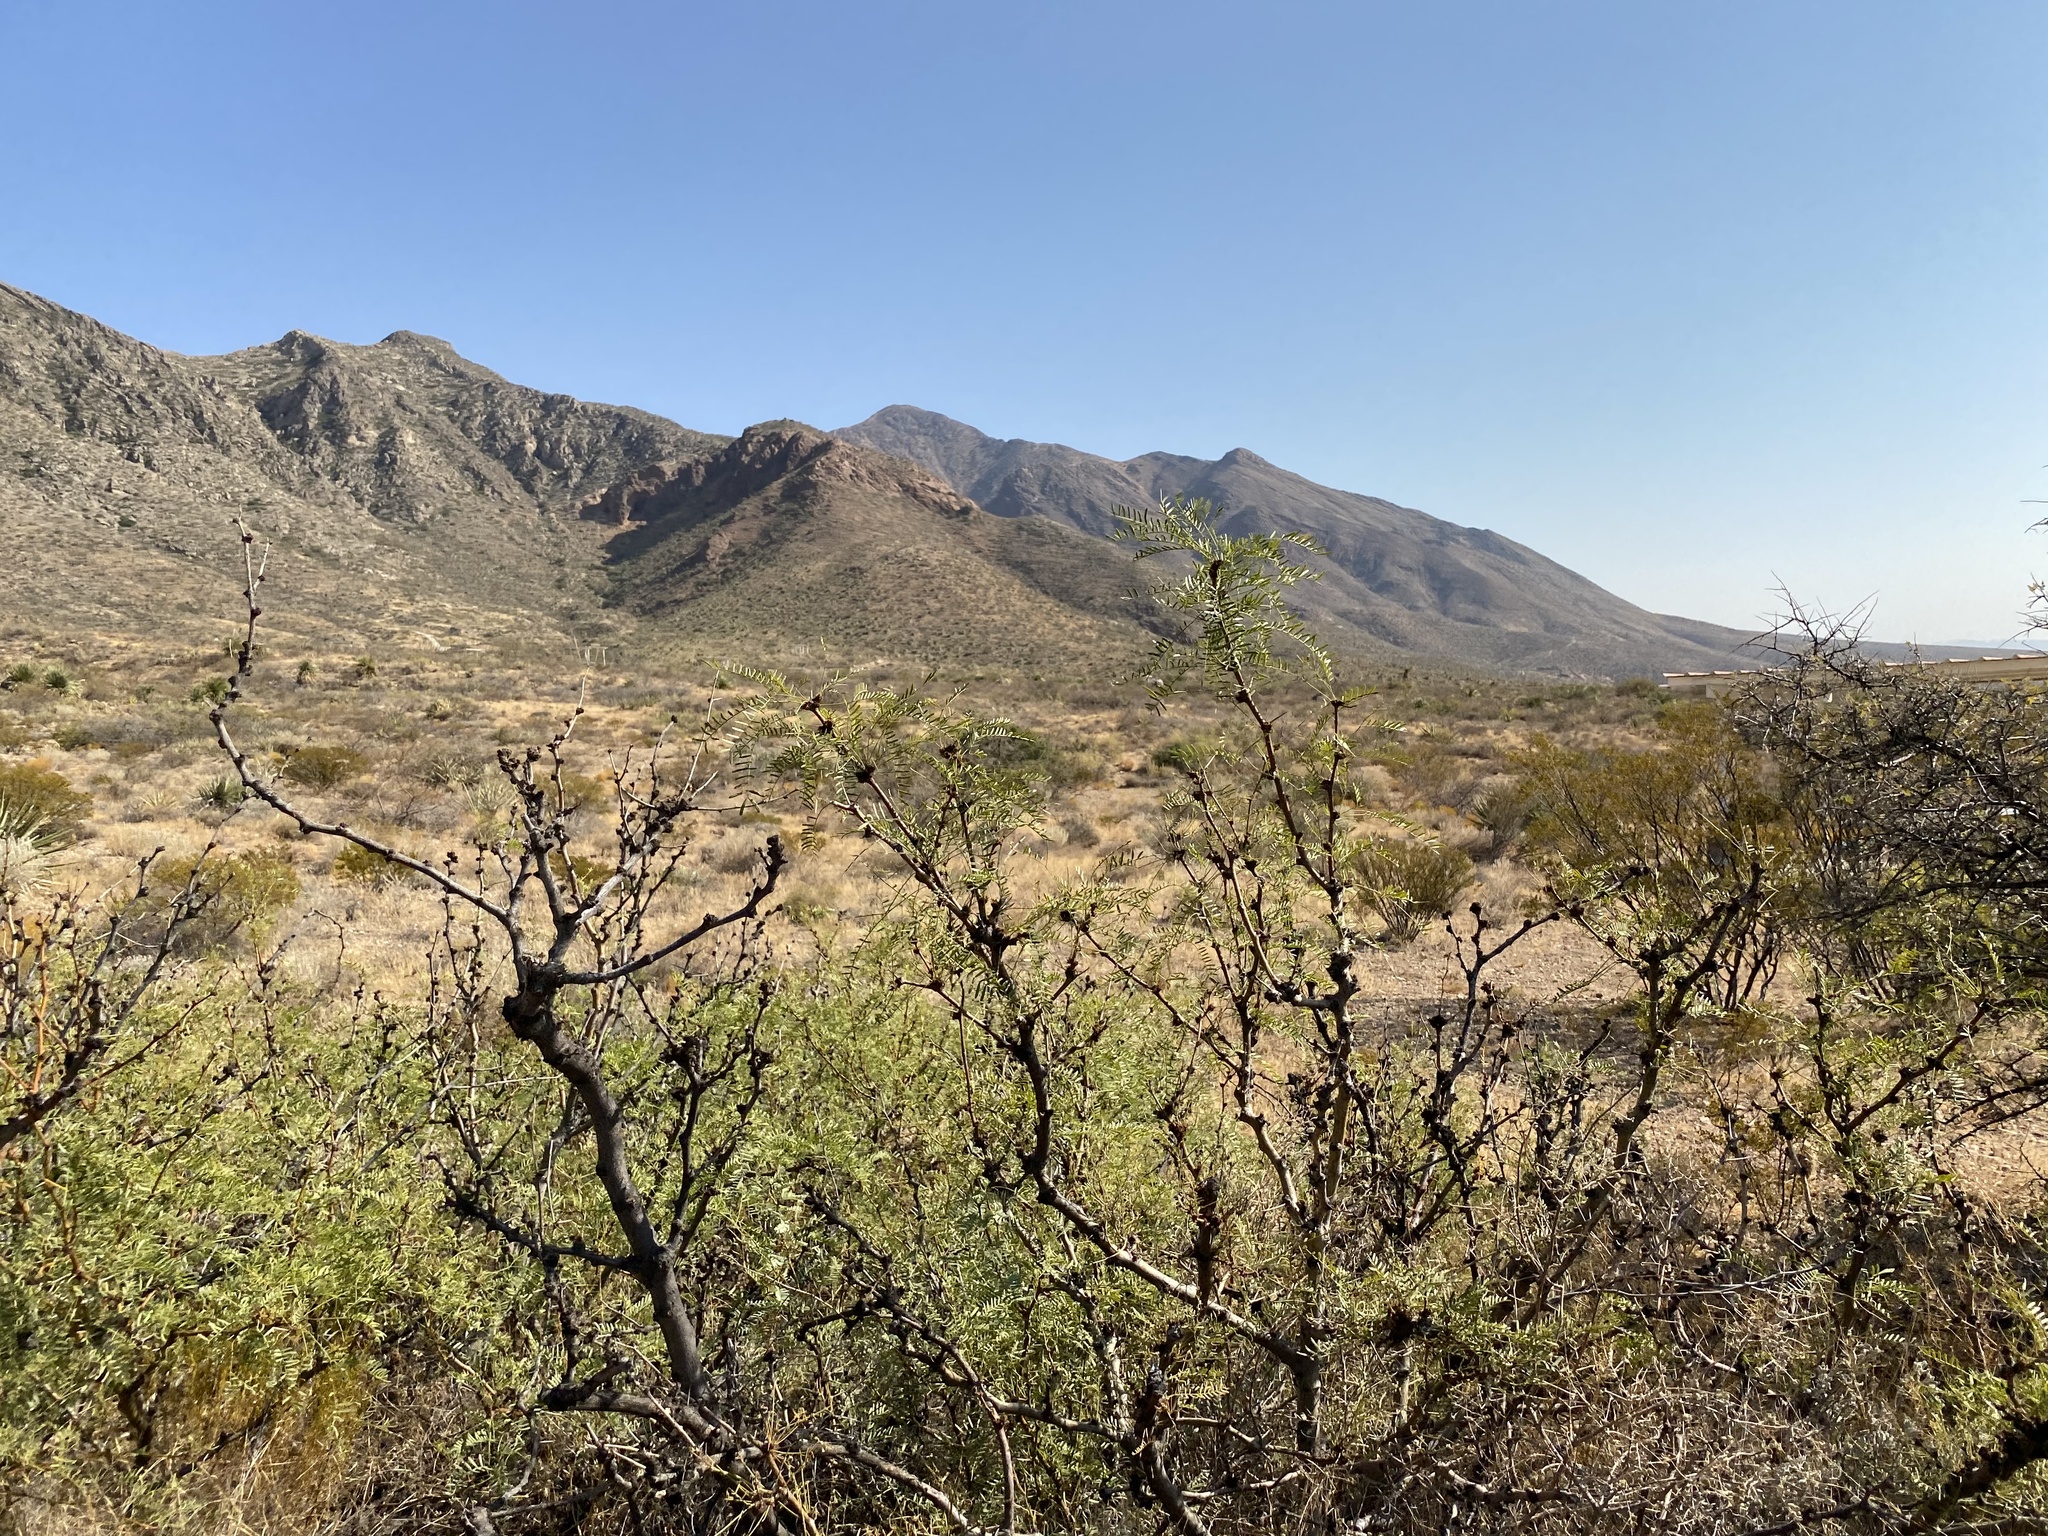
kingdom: Plantae
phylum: Tracheophyta
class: Magnoliopsida
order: Fabales
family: Fabaceae
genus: Prosopis
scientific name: Prosopis glandulosa
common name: Honey mesquite
